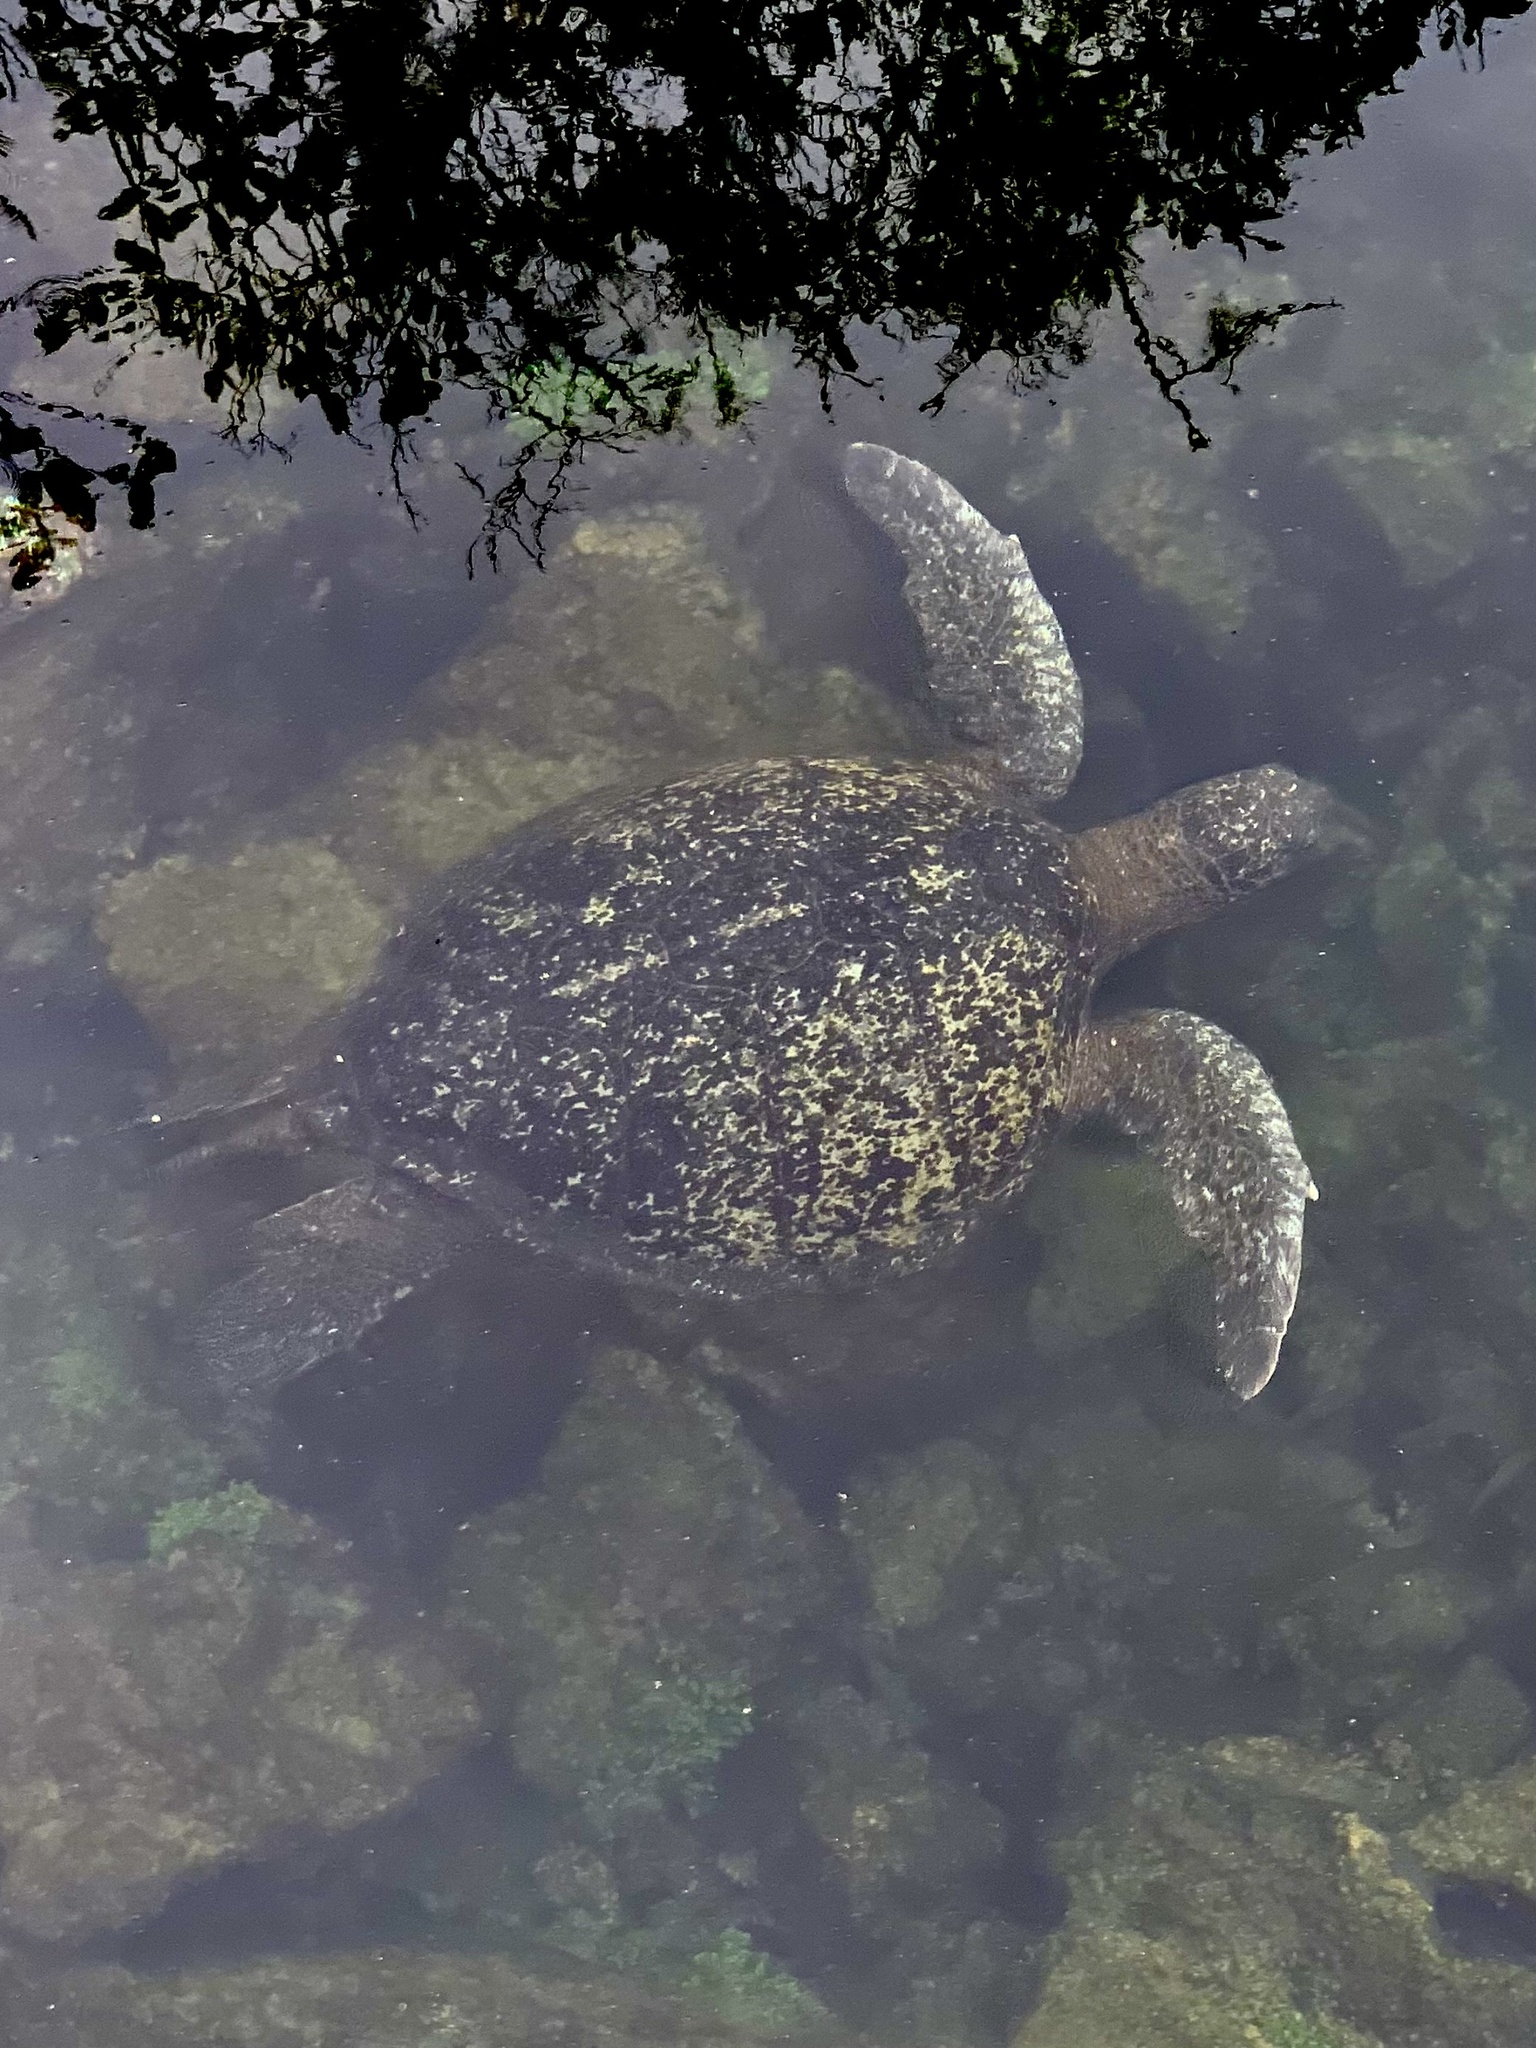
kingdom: Animalia
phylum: Chordata
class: Testudines
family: Cheloniidae
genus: Chelonia
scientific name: Chelonia mydas
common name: Green turtle
